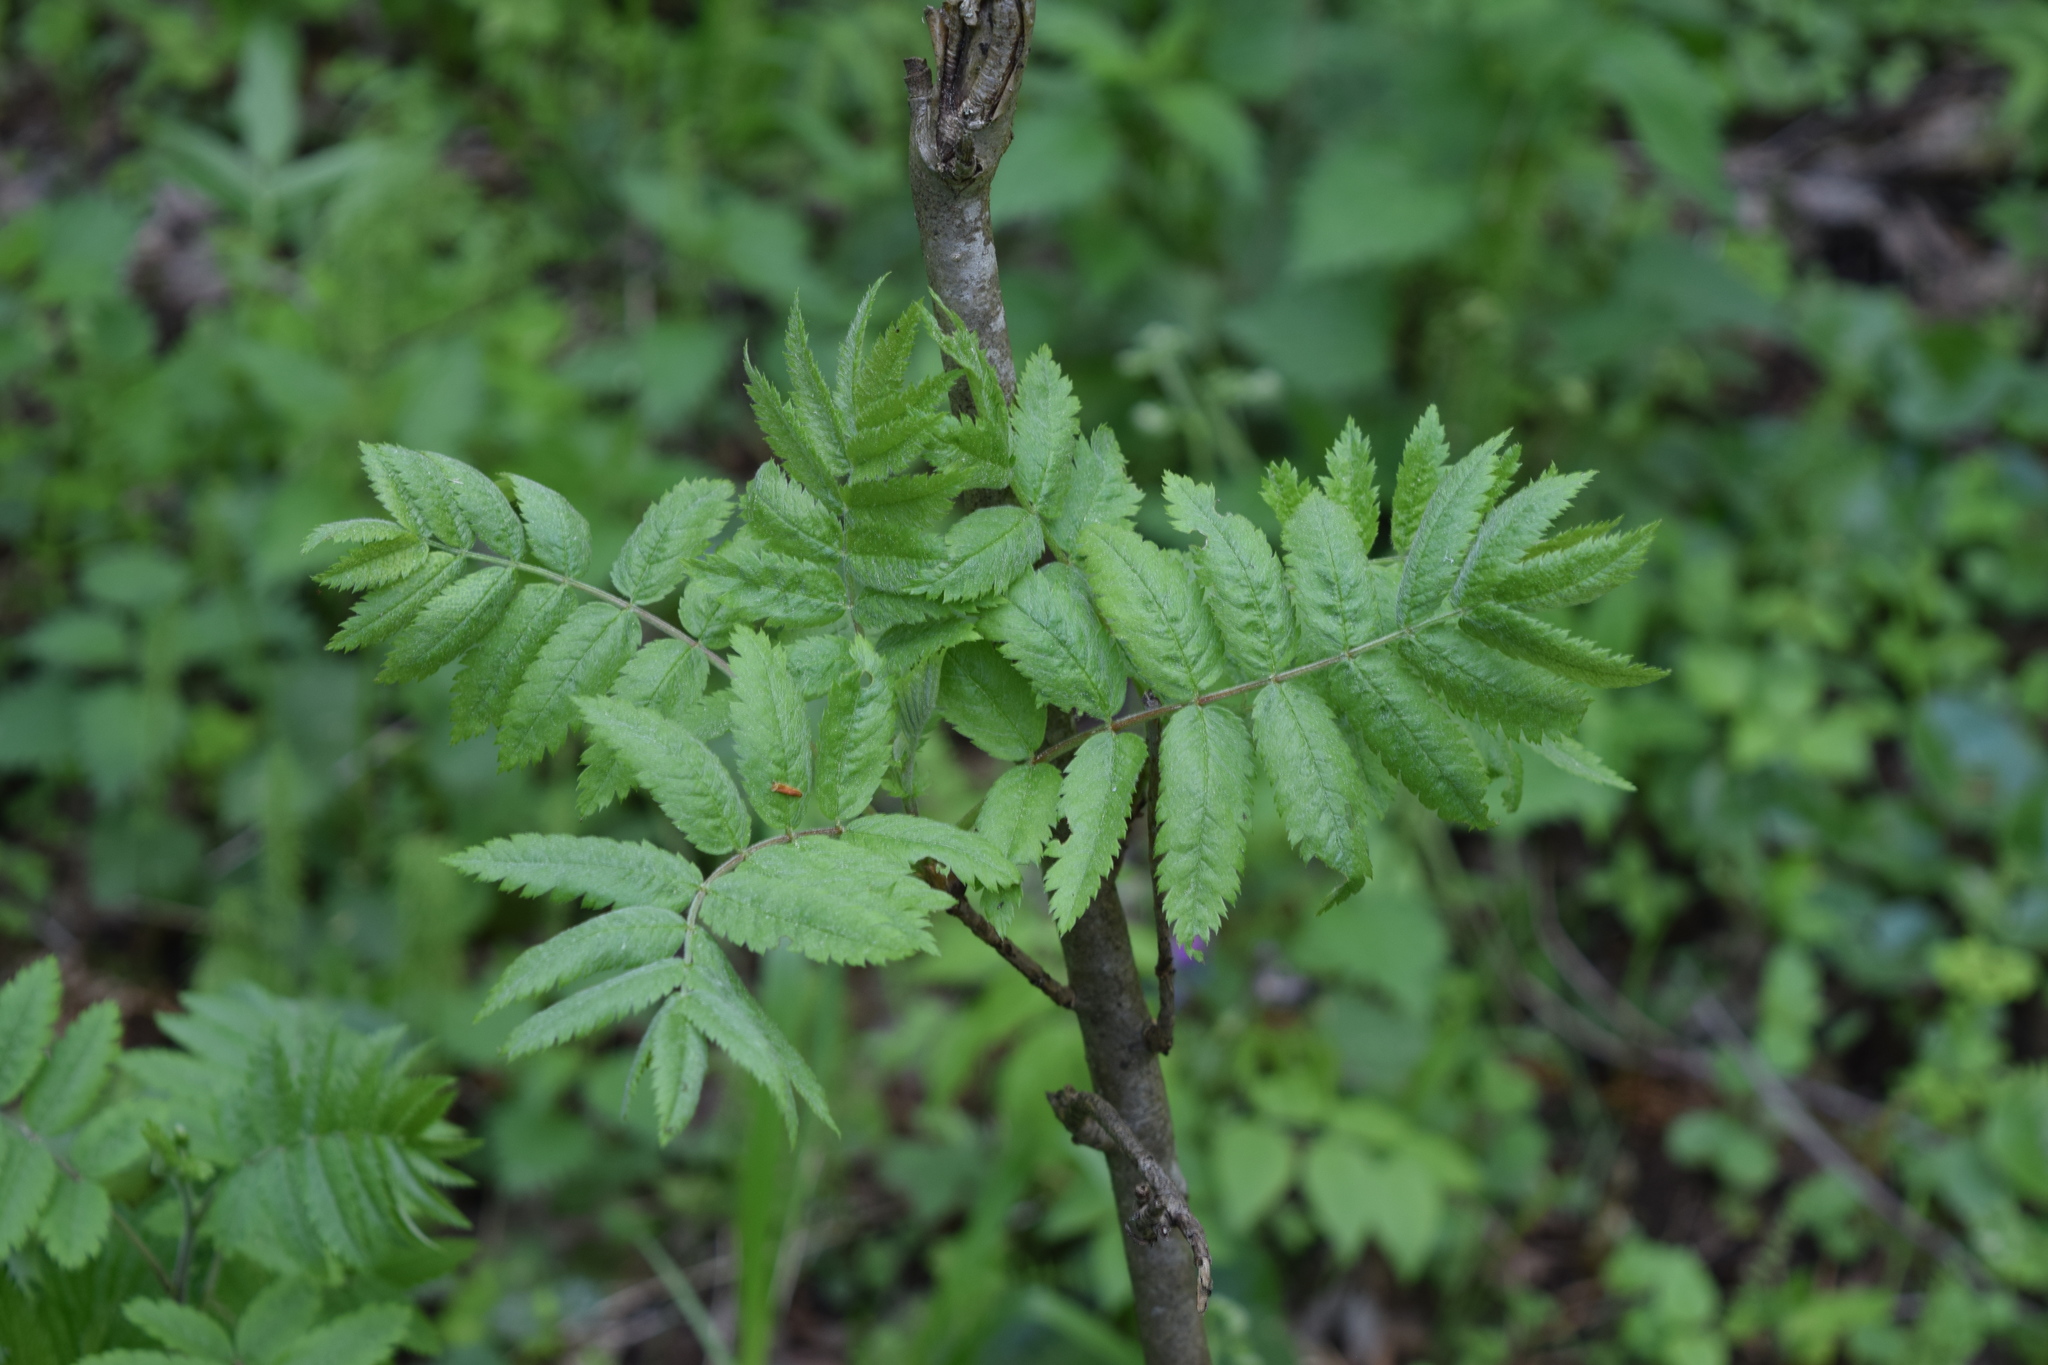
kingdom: Plantae
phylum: Tracheophyta
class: Magnoliopsida
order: Rosales
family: Rosaceae
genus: Sorbus
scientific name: Sorbus aucuparia
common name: Rowan
